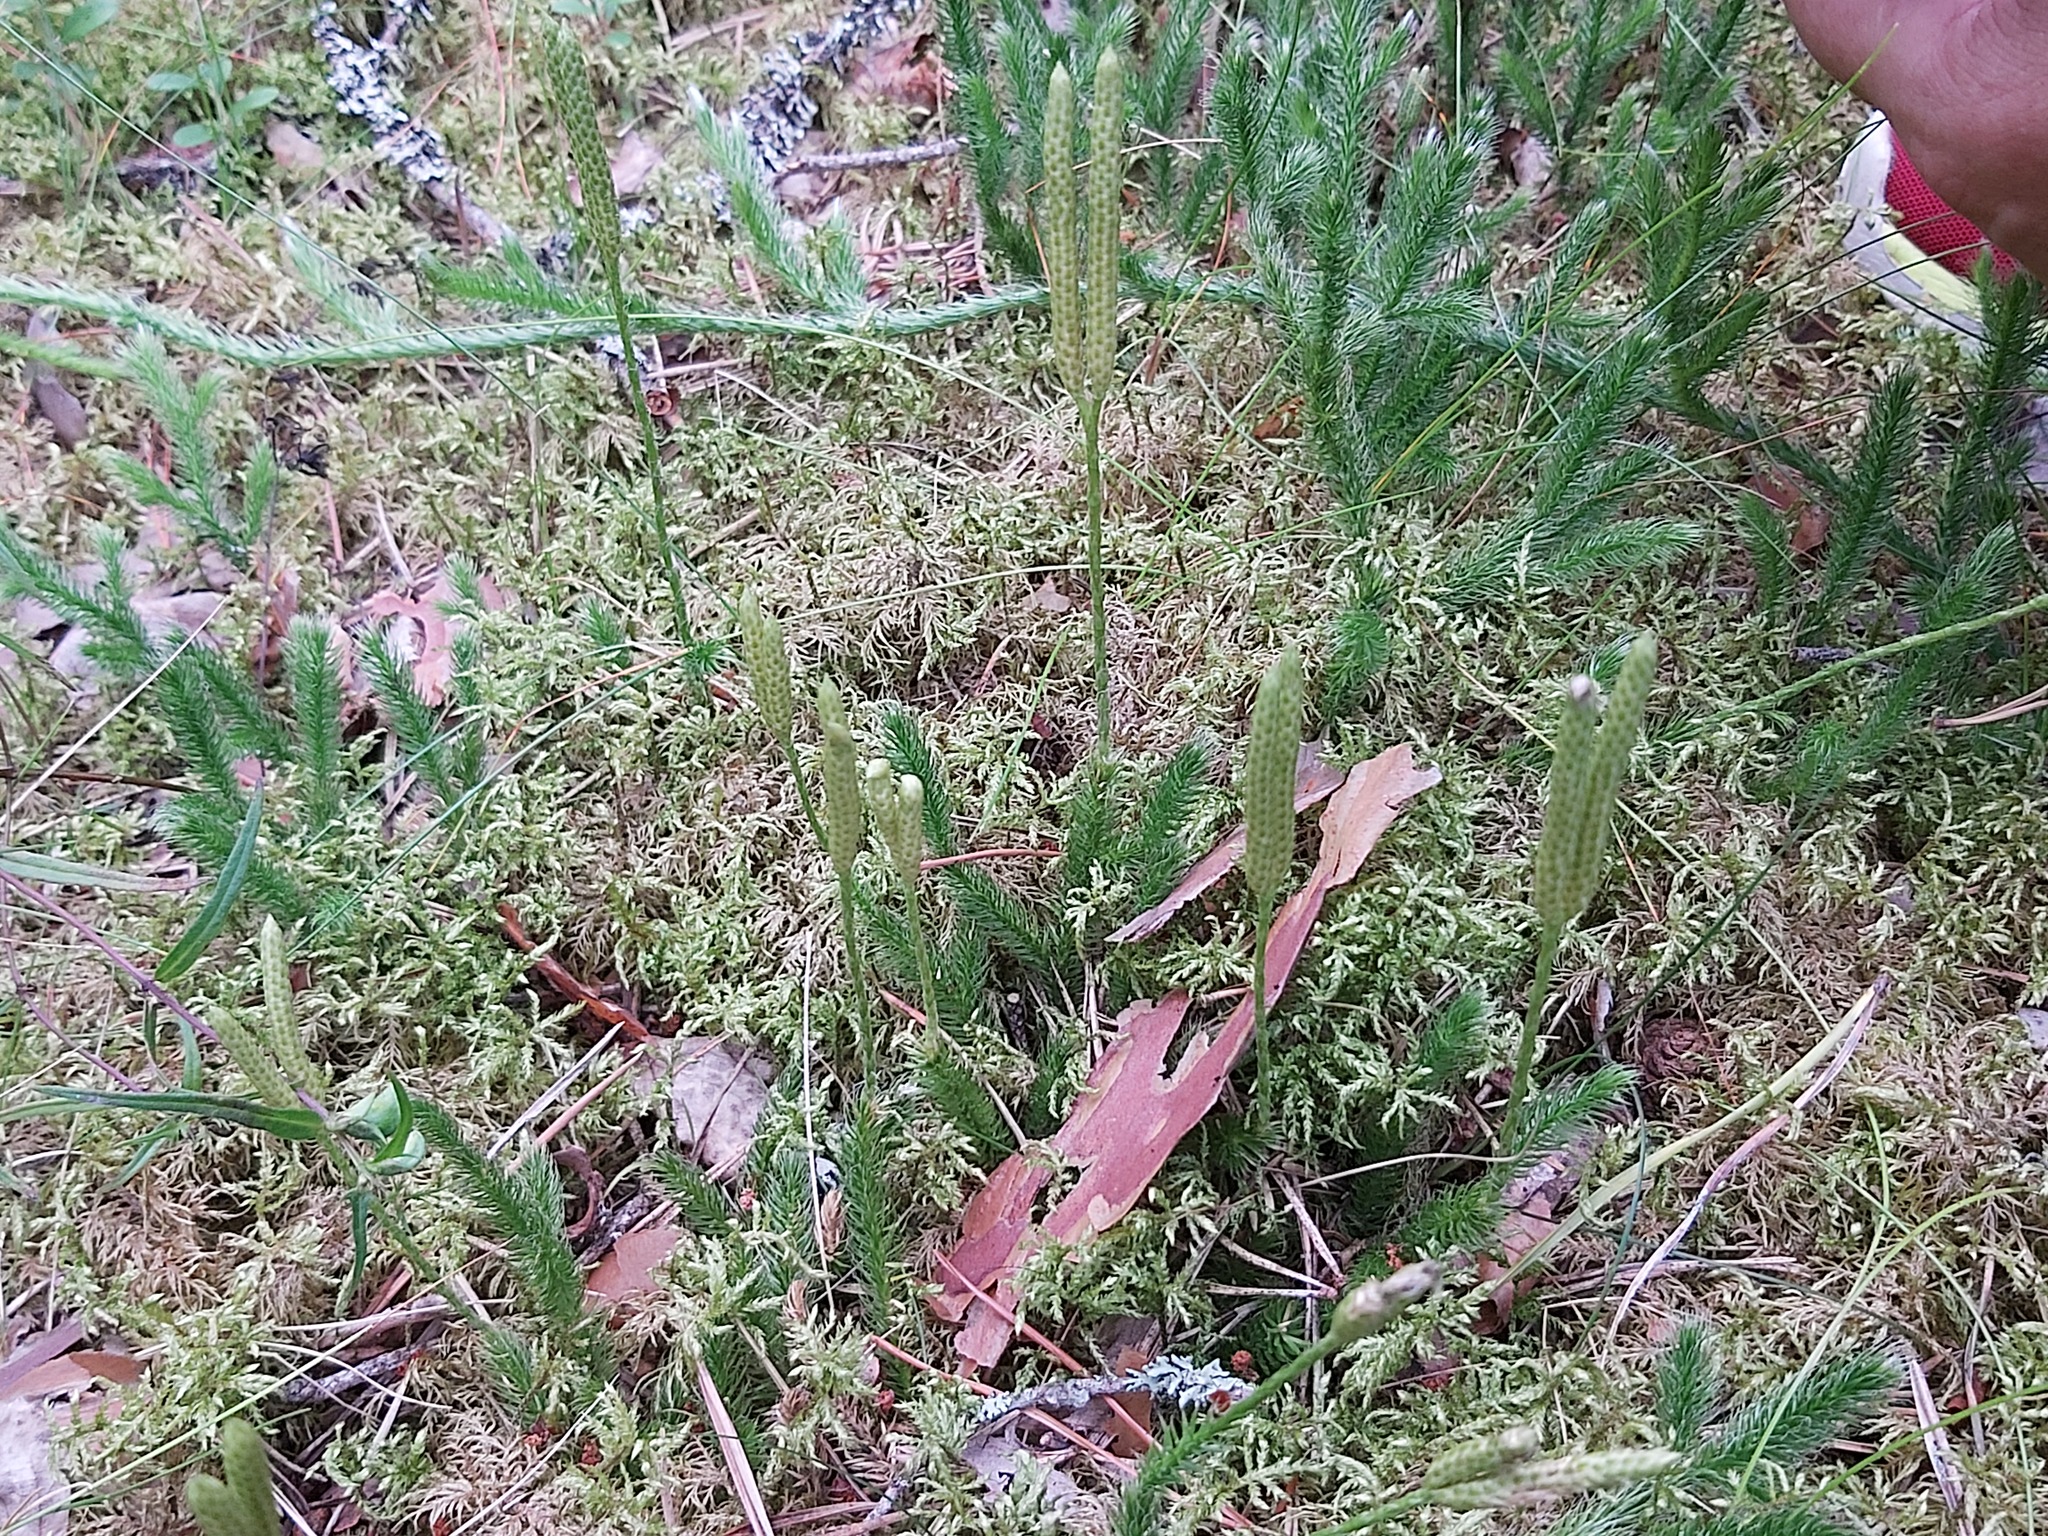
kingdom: Plantae
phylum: Tracheophyta
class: Lycopodiopsida
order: Lycopodiales
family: Lycopodiaceae
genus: Lycopodium
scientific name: Lycopodium clavatum
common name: Stag's-horn clubmoss
